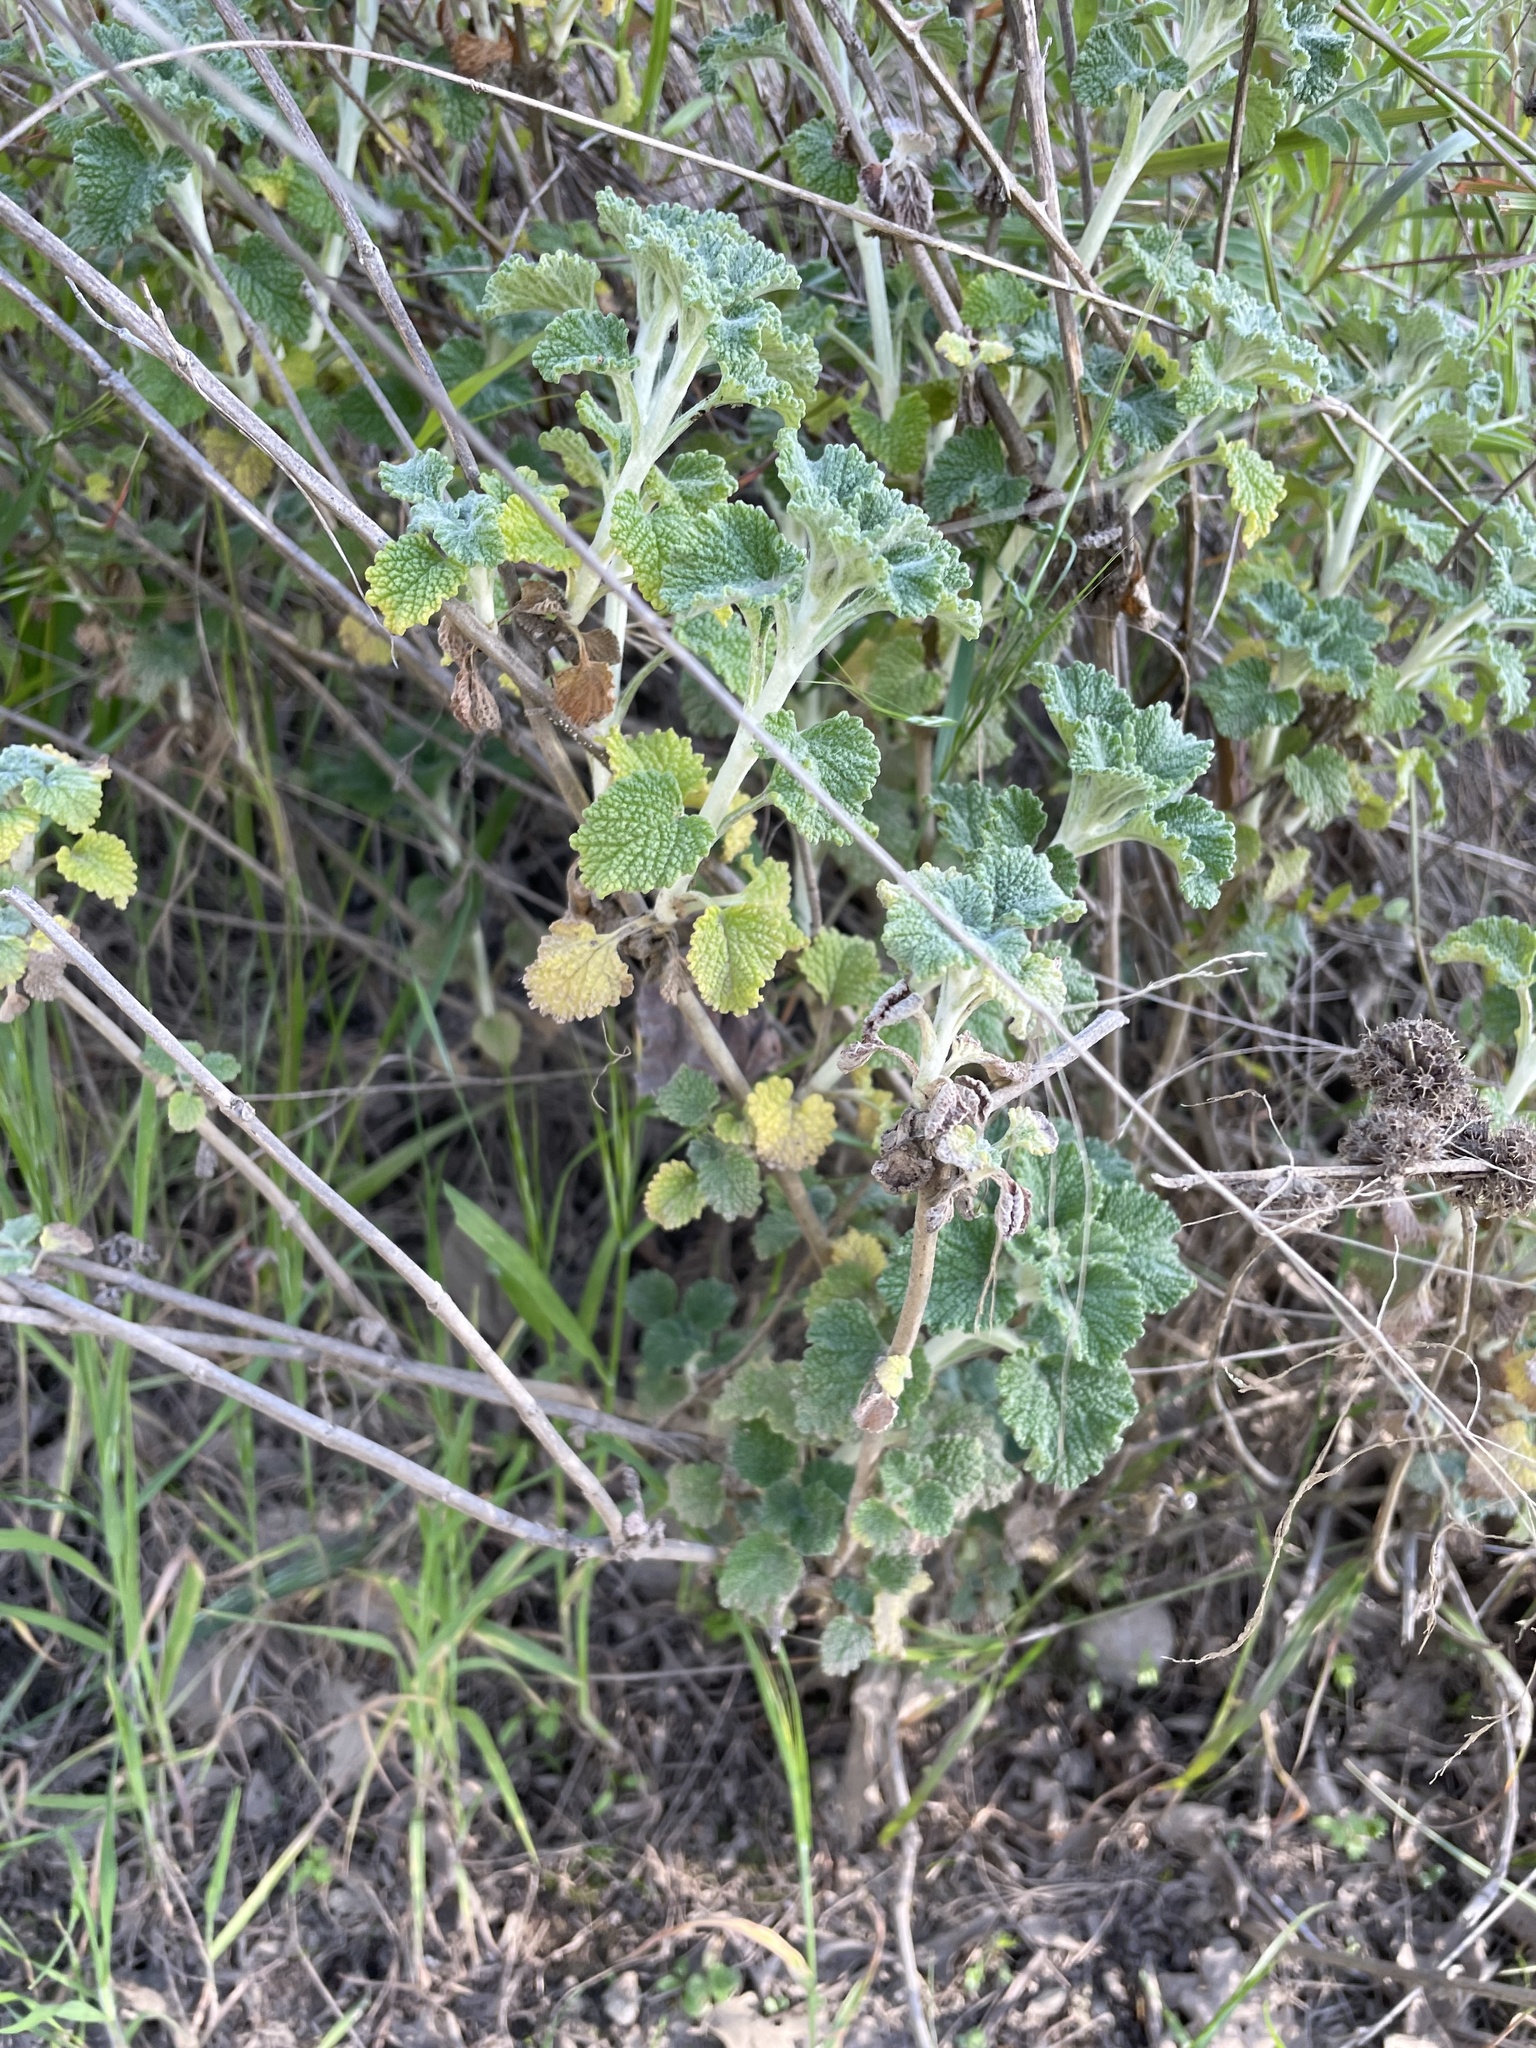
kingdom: Plantae
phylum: Tracheophyta
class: Magnoliopsida
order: Lamiales
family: Lamiaceae
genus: Marrubium
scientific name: Marrubium vulgare
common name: Horehound
